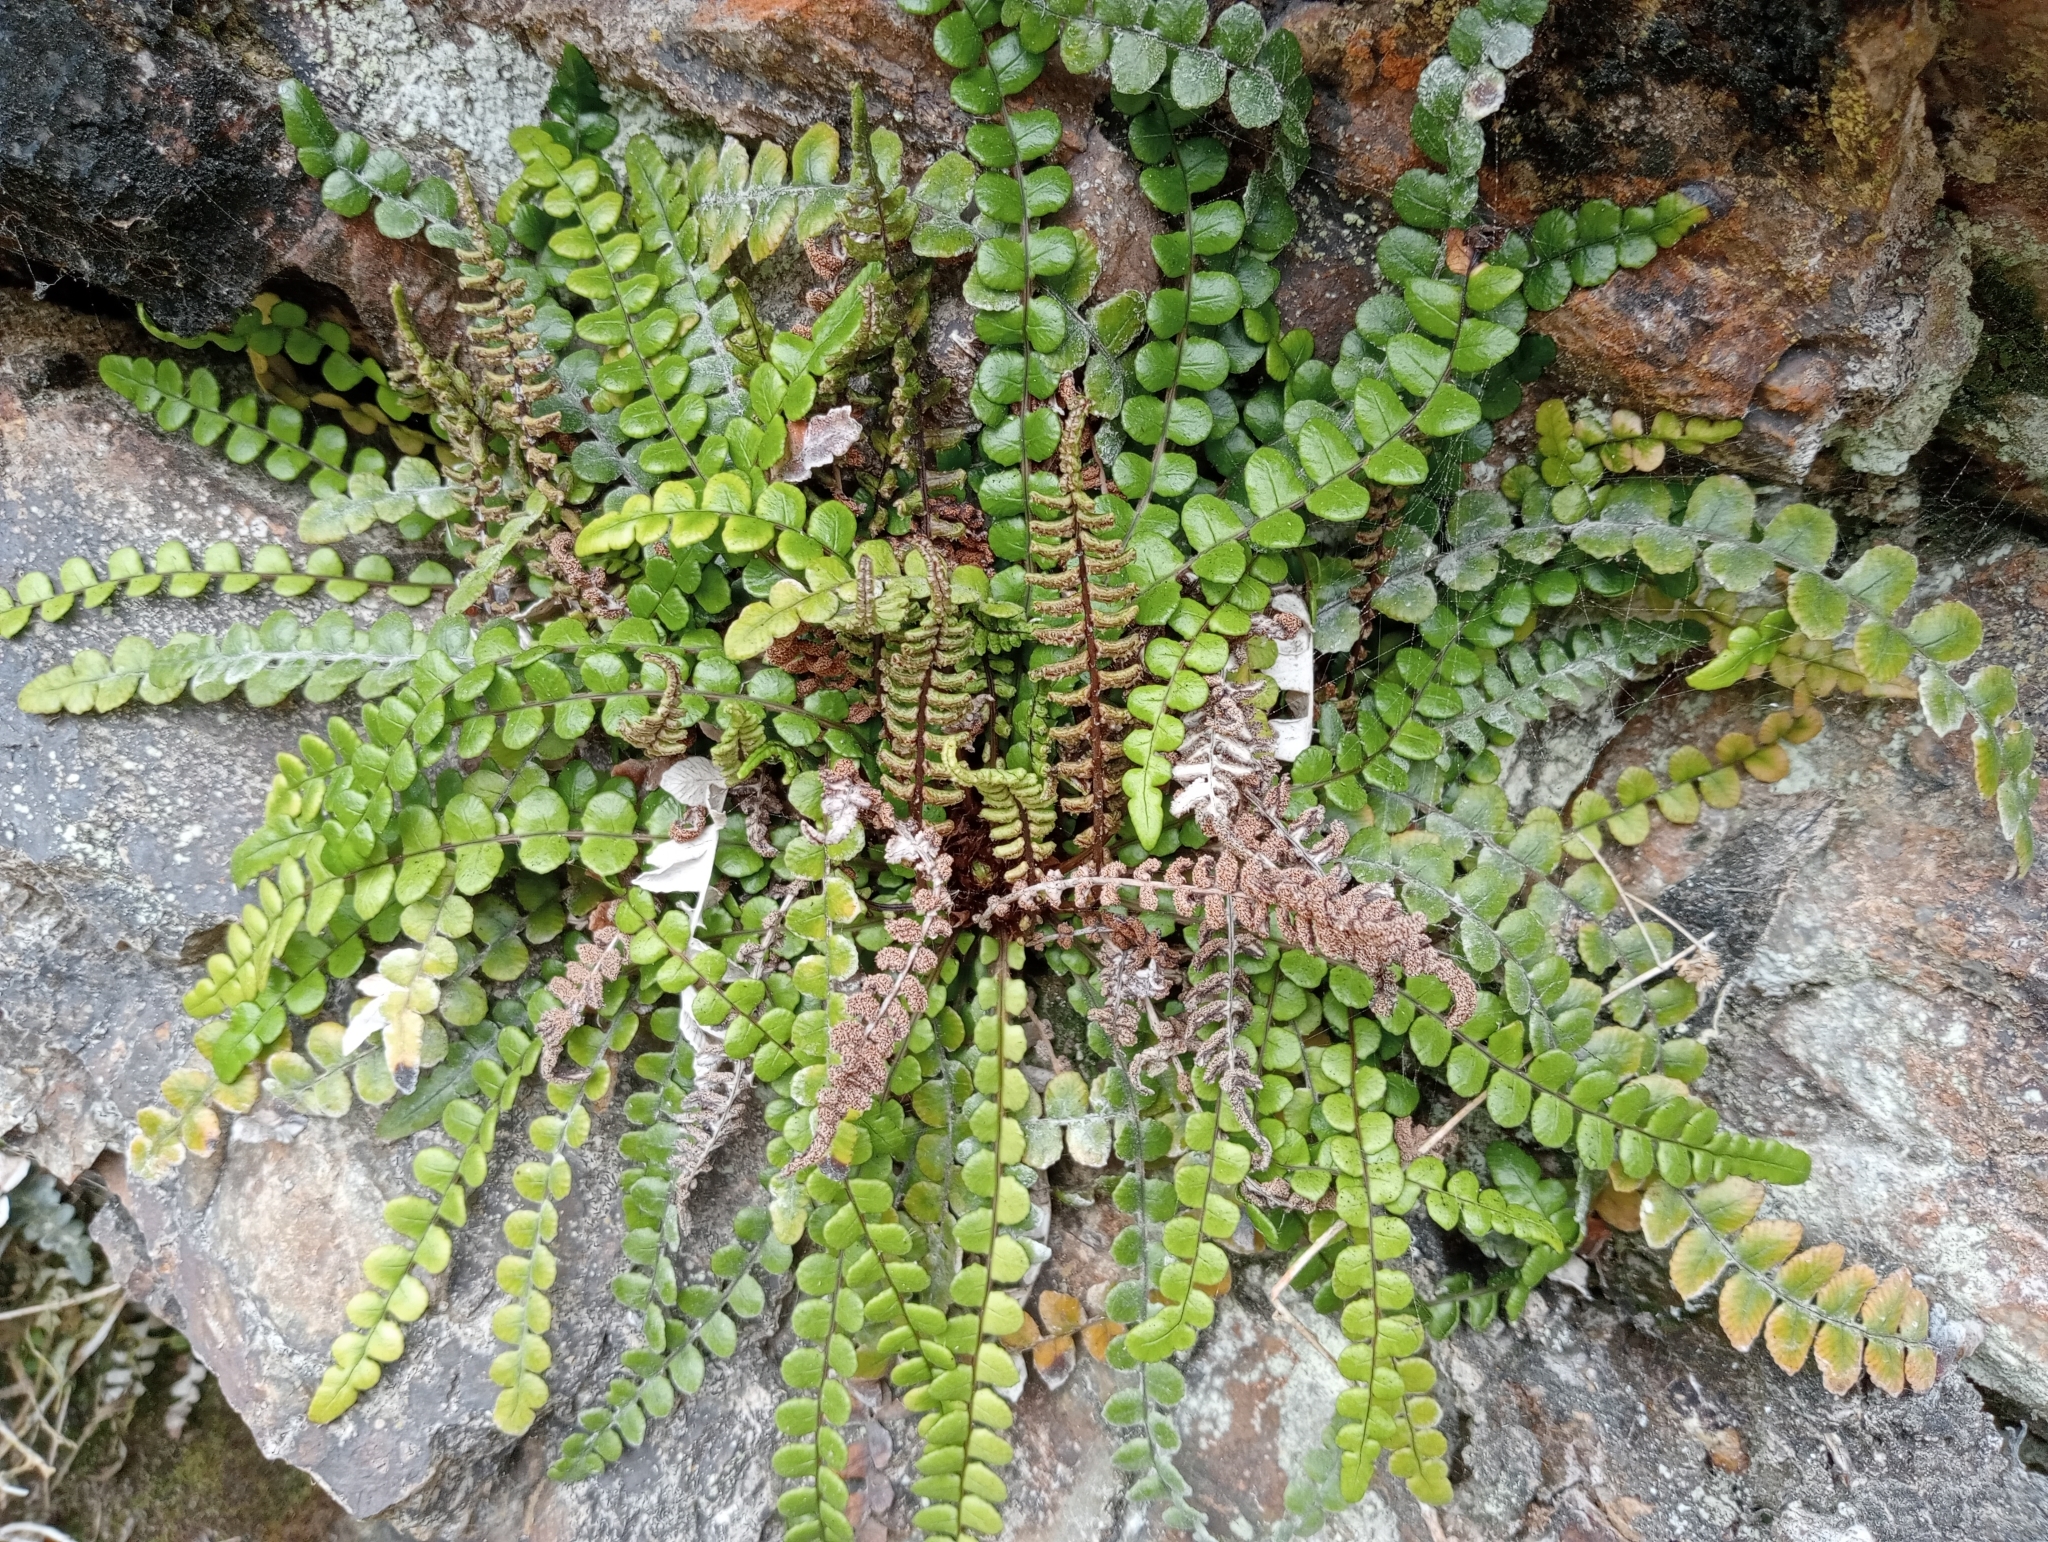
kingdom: Plantae
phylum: Tracheophyta
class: Polypodiopsida
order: Polypodiales
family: Blechnaceae
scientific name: Blechnaceae
